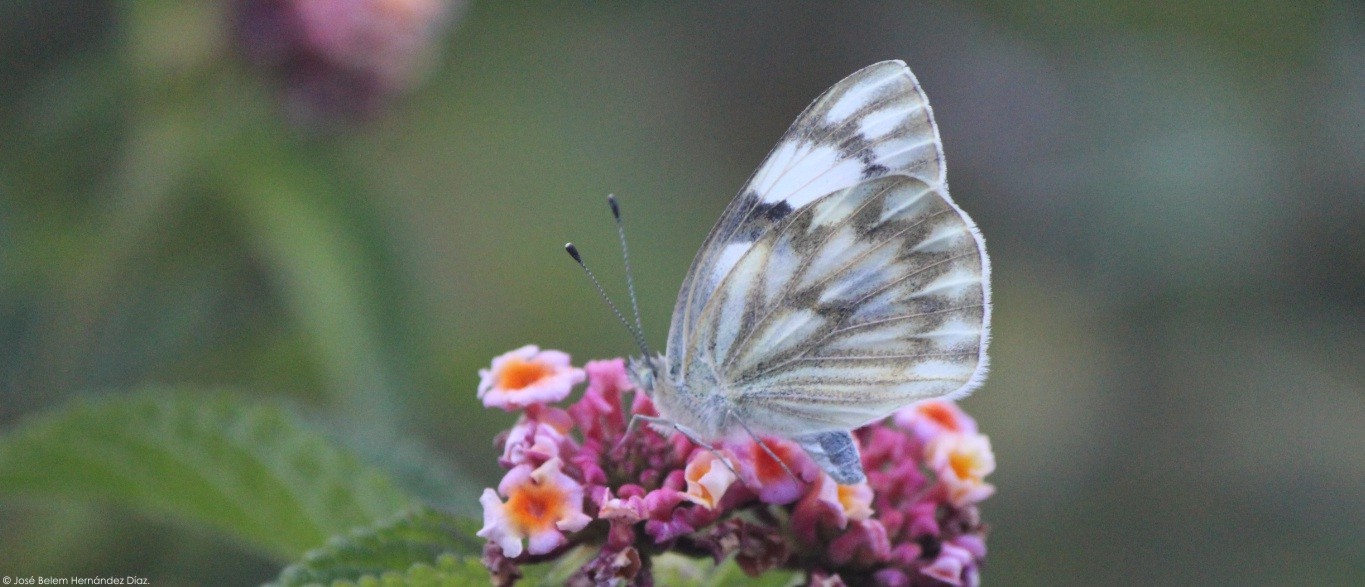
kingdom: Animalia
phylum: Arthropoda
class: Insecta
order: Lepidoptera
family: Pieridae
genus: Pontia
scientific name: Pontia protodice
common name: Checkered white
